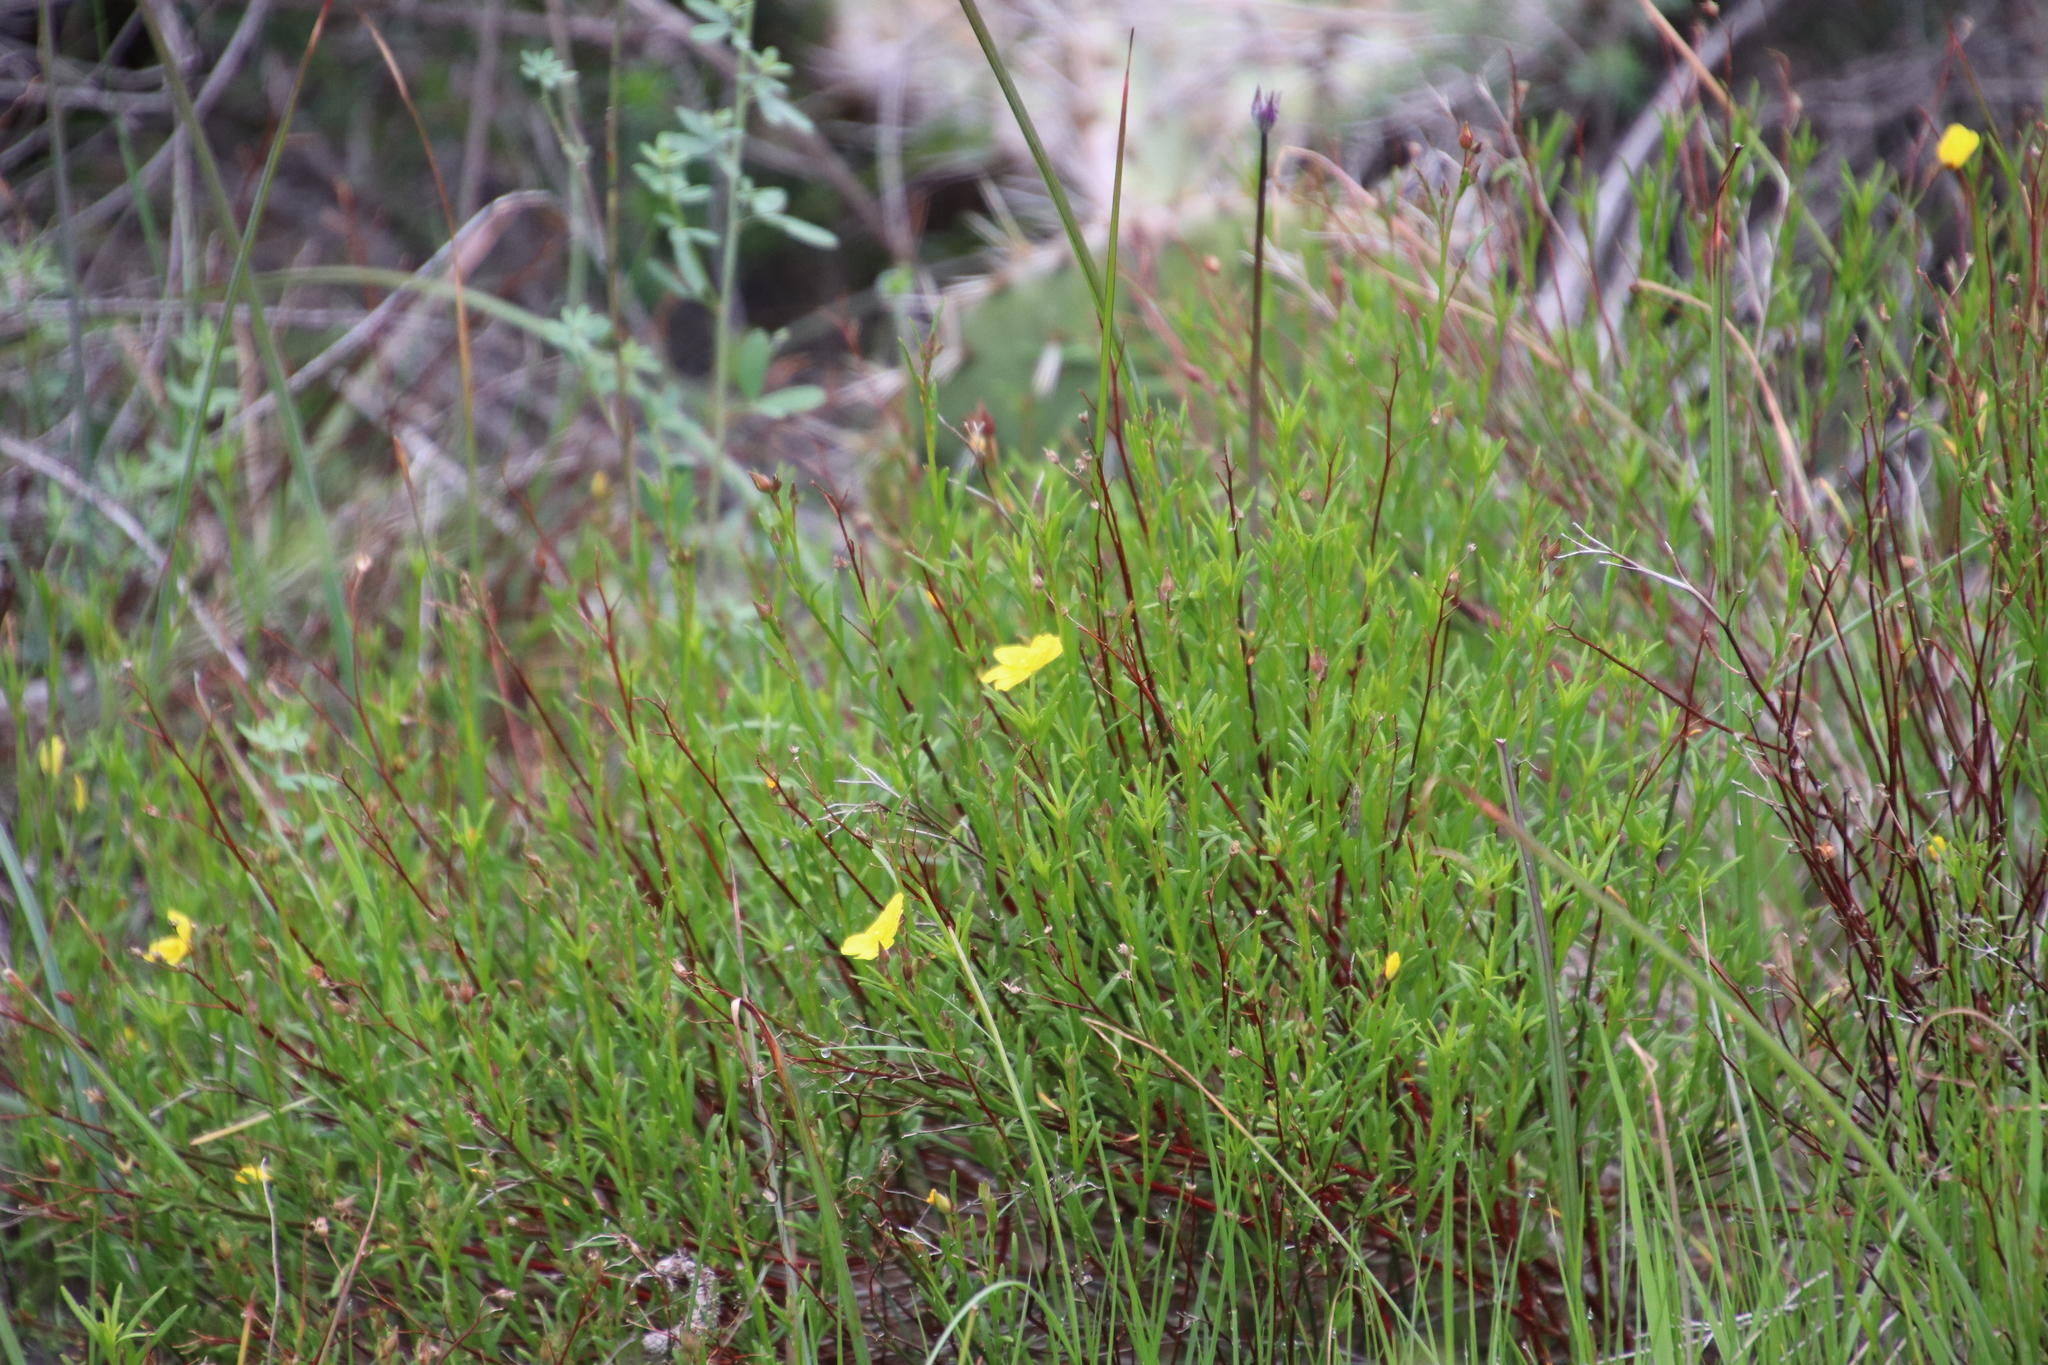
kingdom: Plantae
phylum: Tracheophyta
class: Magnoliopsida
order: Malvales
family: Cistaceae
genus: Crocanthemum
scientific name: Crocanthemum scoparium
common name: Broom-rose
